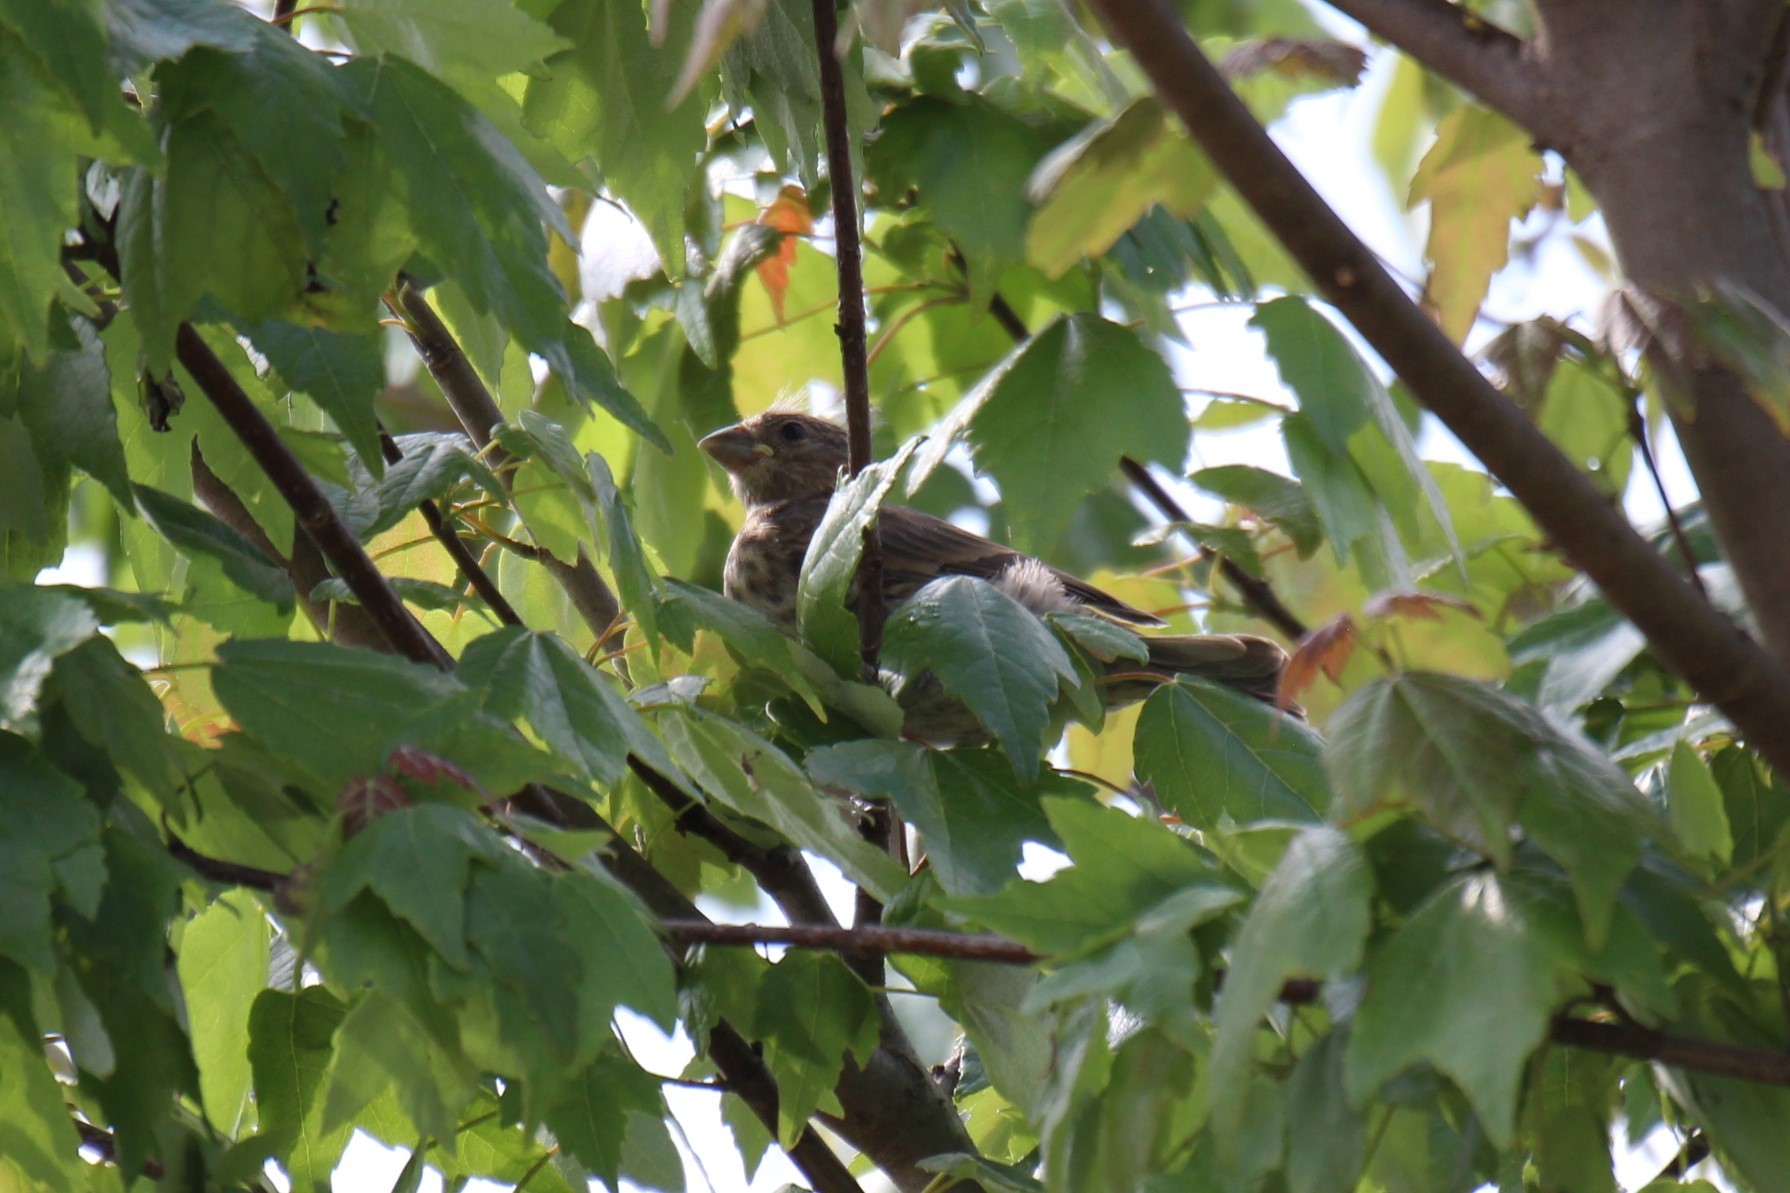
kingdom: Animalia
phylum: Chordata
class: Aves
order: Passeriformes
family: Fringillidae
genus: Haemorhous
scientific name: Haemorhous mexicanus
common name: House finch
